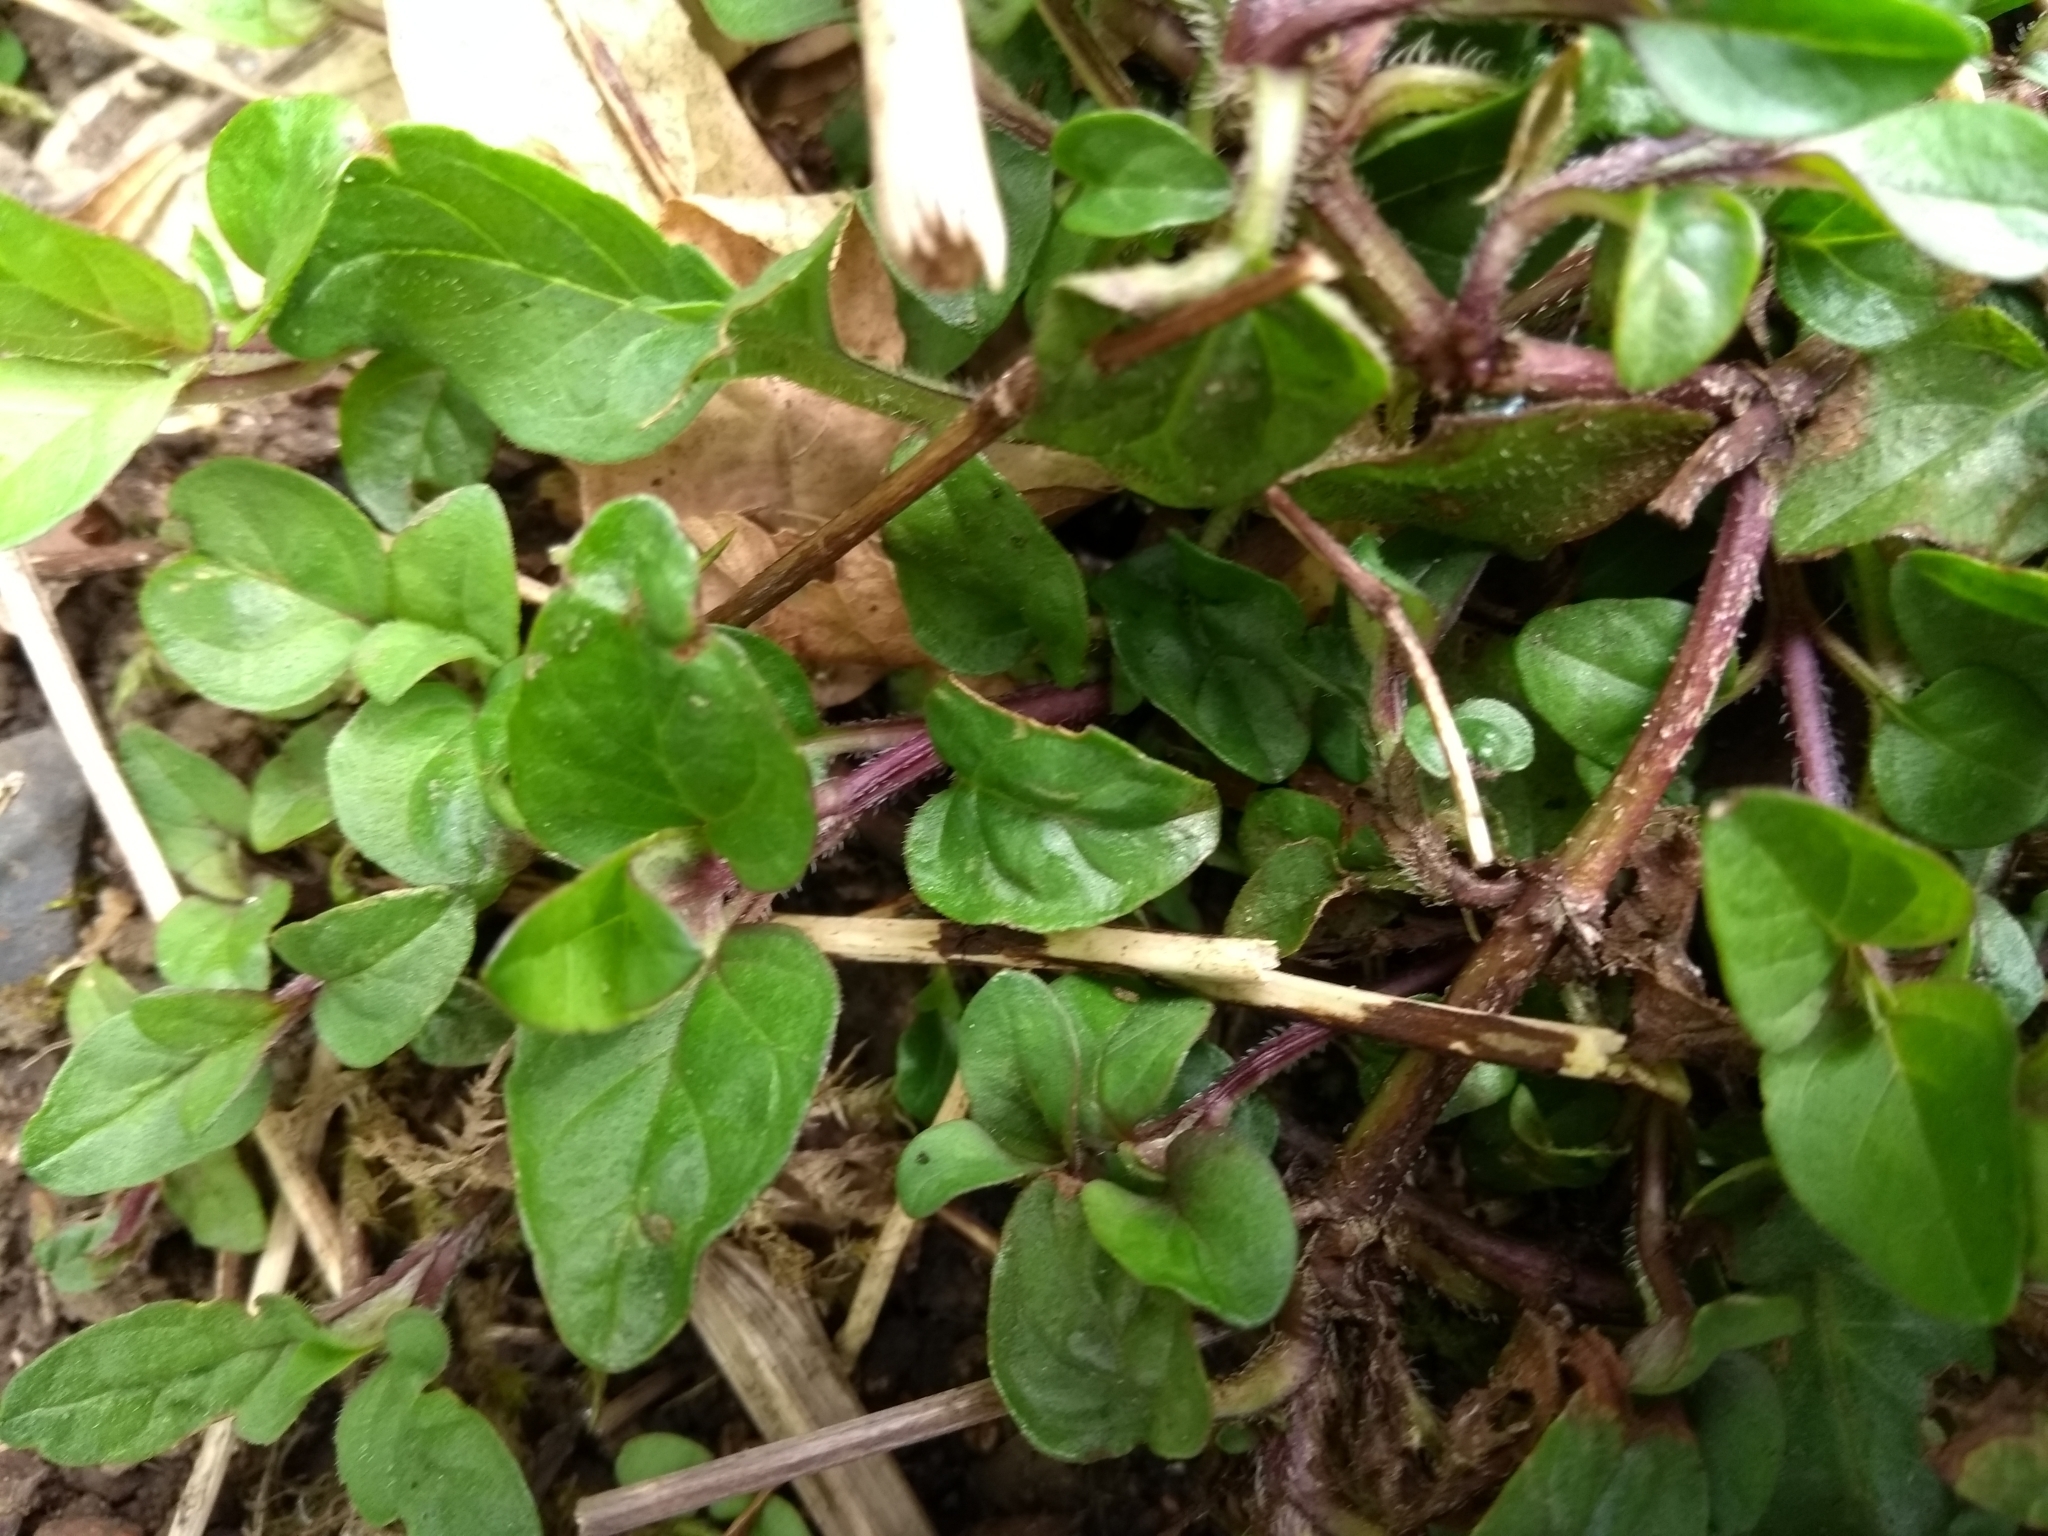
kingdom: Plantae
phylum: Tracheophyta
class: Magnoliopsida
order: Lamiales
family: Lamiaceae
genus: Prunella
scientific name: Prunella vulgaris
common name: Heal-all
